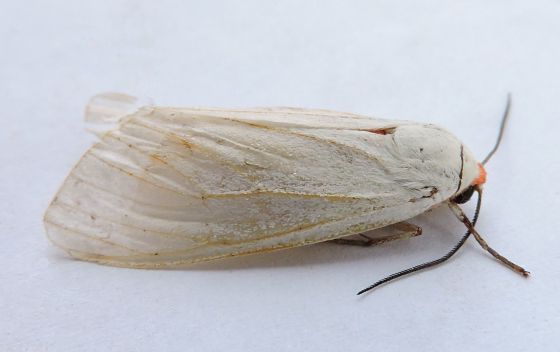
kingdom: Animalia
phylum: Arthropoda
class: Insecta
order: Lepidoptera
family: Erebidae
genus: Pygarctia
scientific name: Pygarctia roseicapitis
